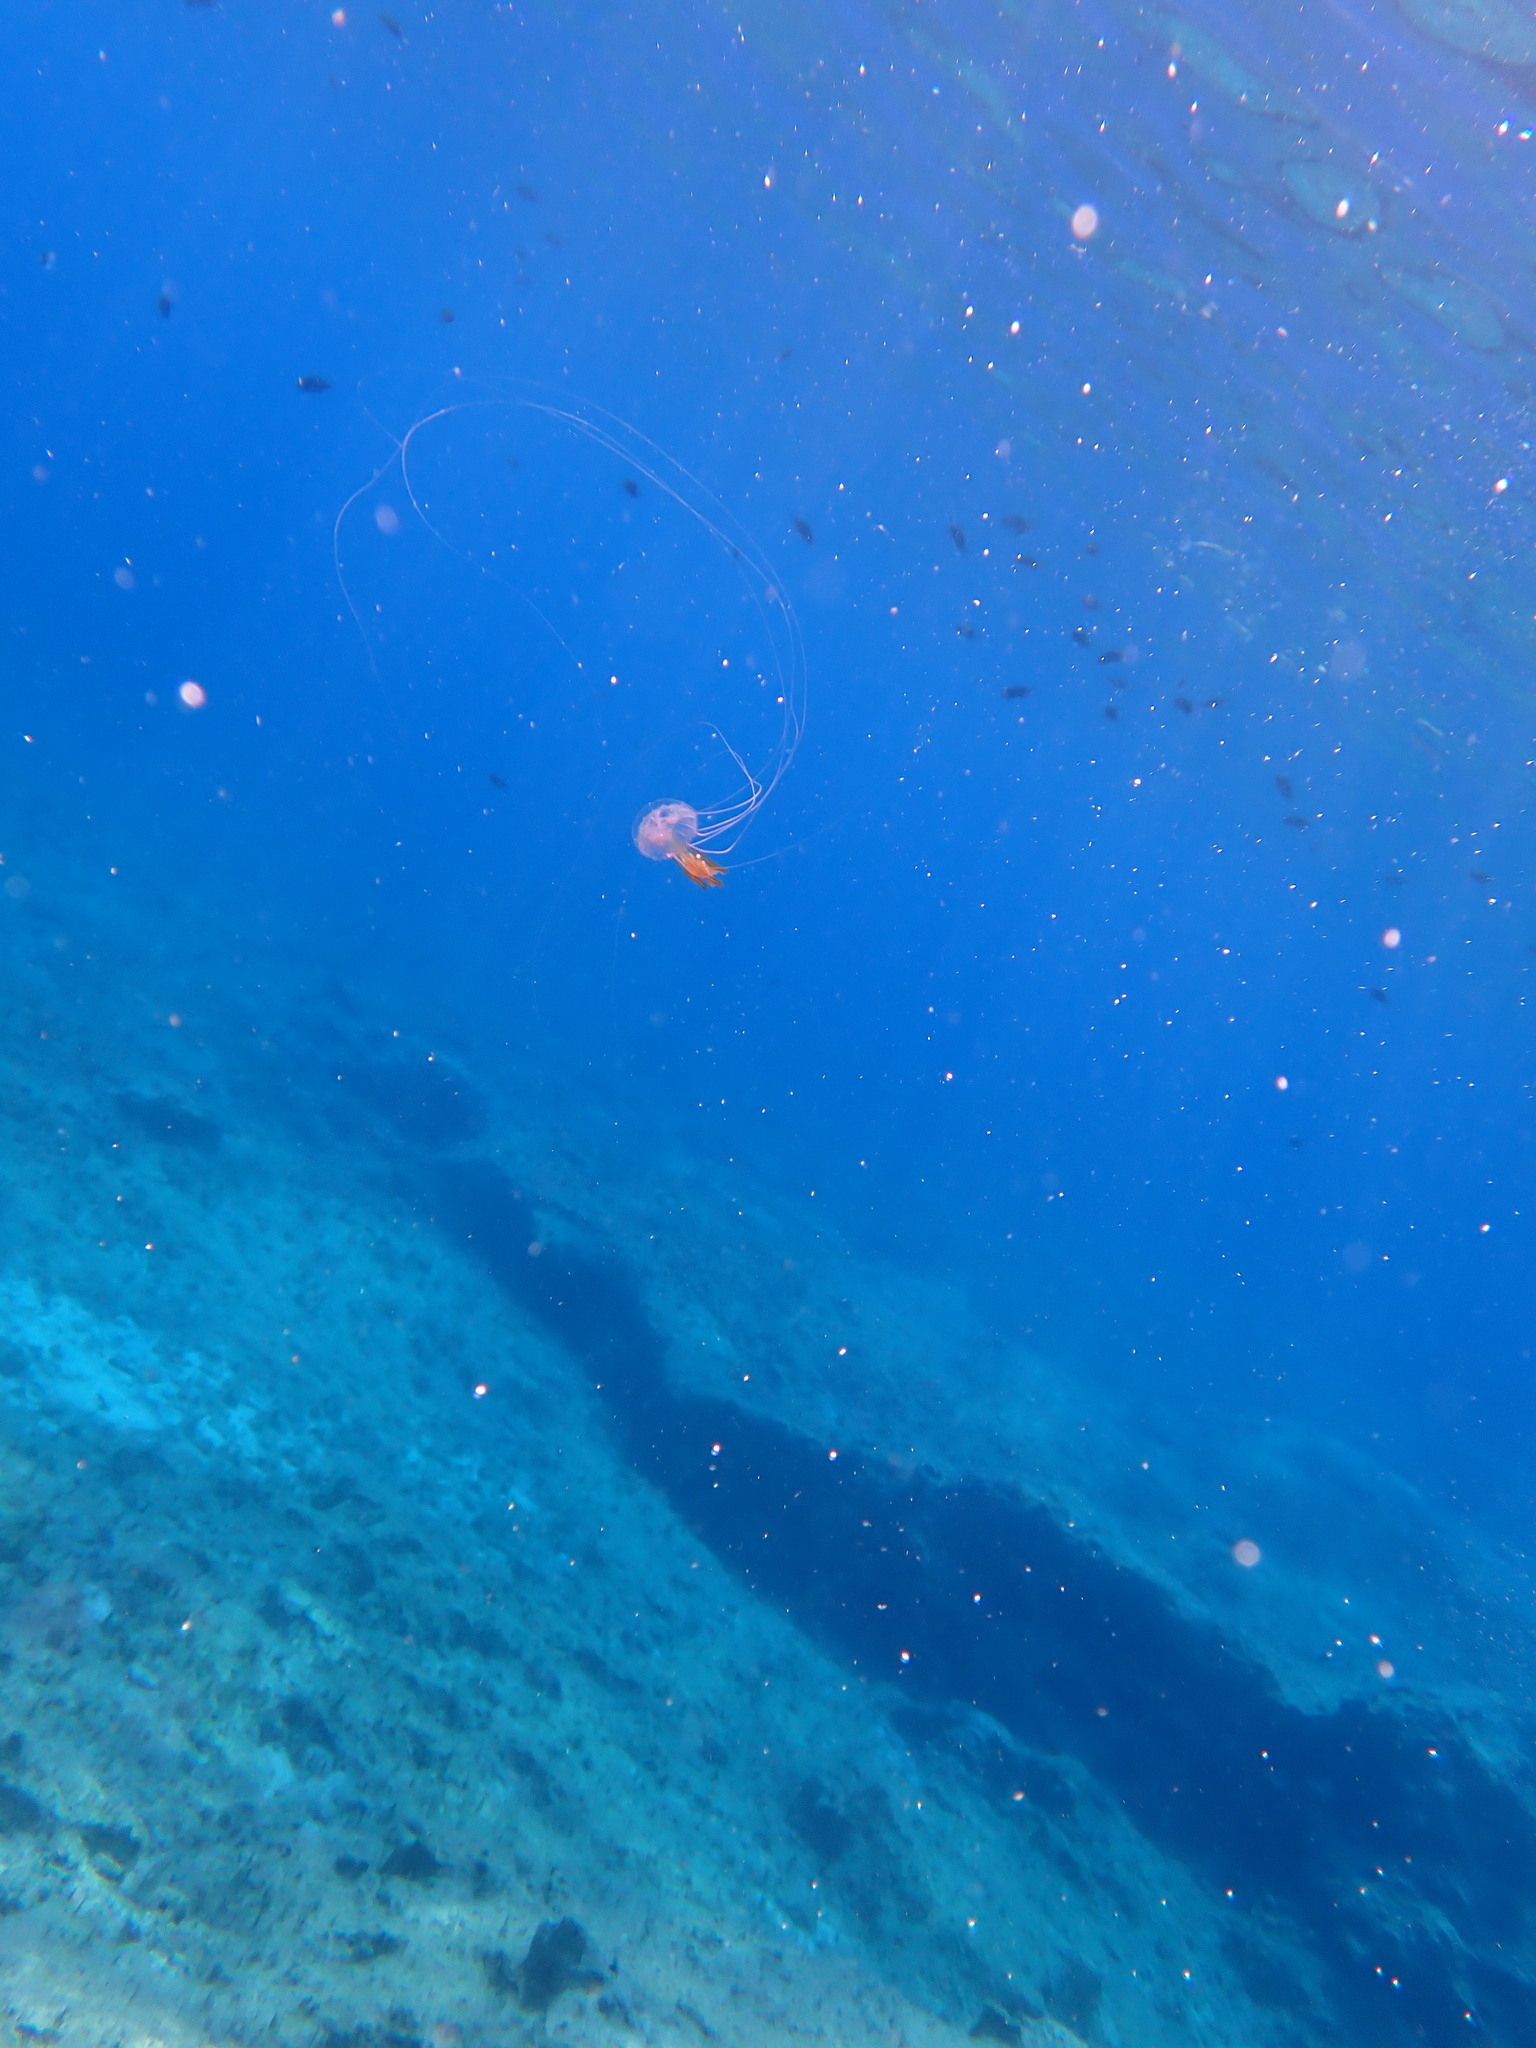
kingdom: Animalia
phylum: Cnidaria
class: Scyphozoa
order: Semaeostomeae
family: Pelagiidae
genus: Pelagia
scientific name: Pelagia noctiluca
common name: Mauve stinger
